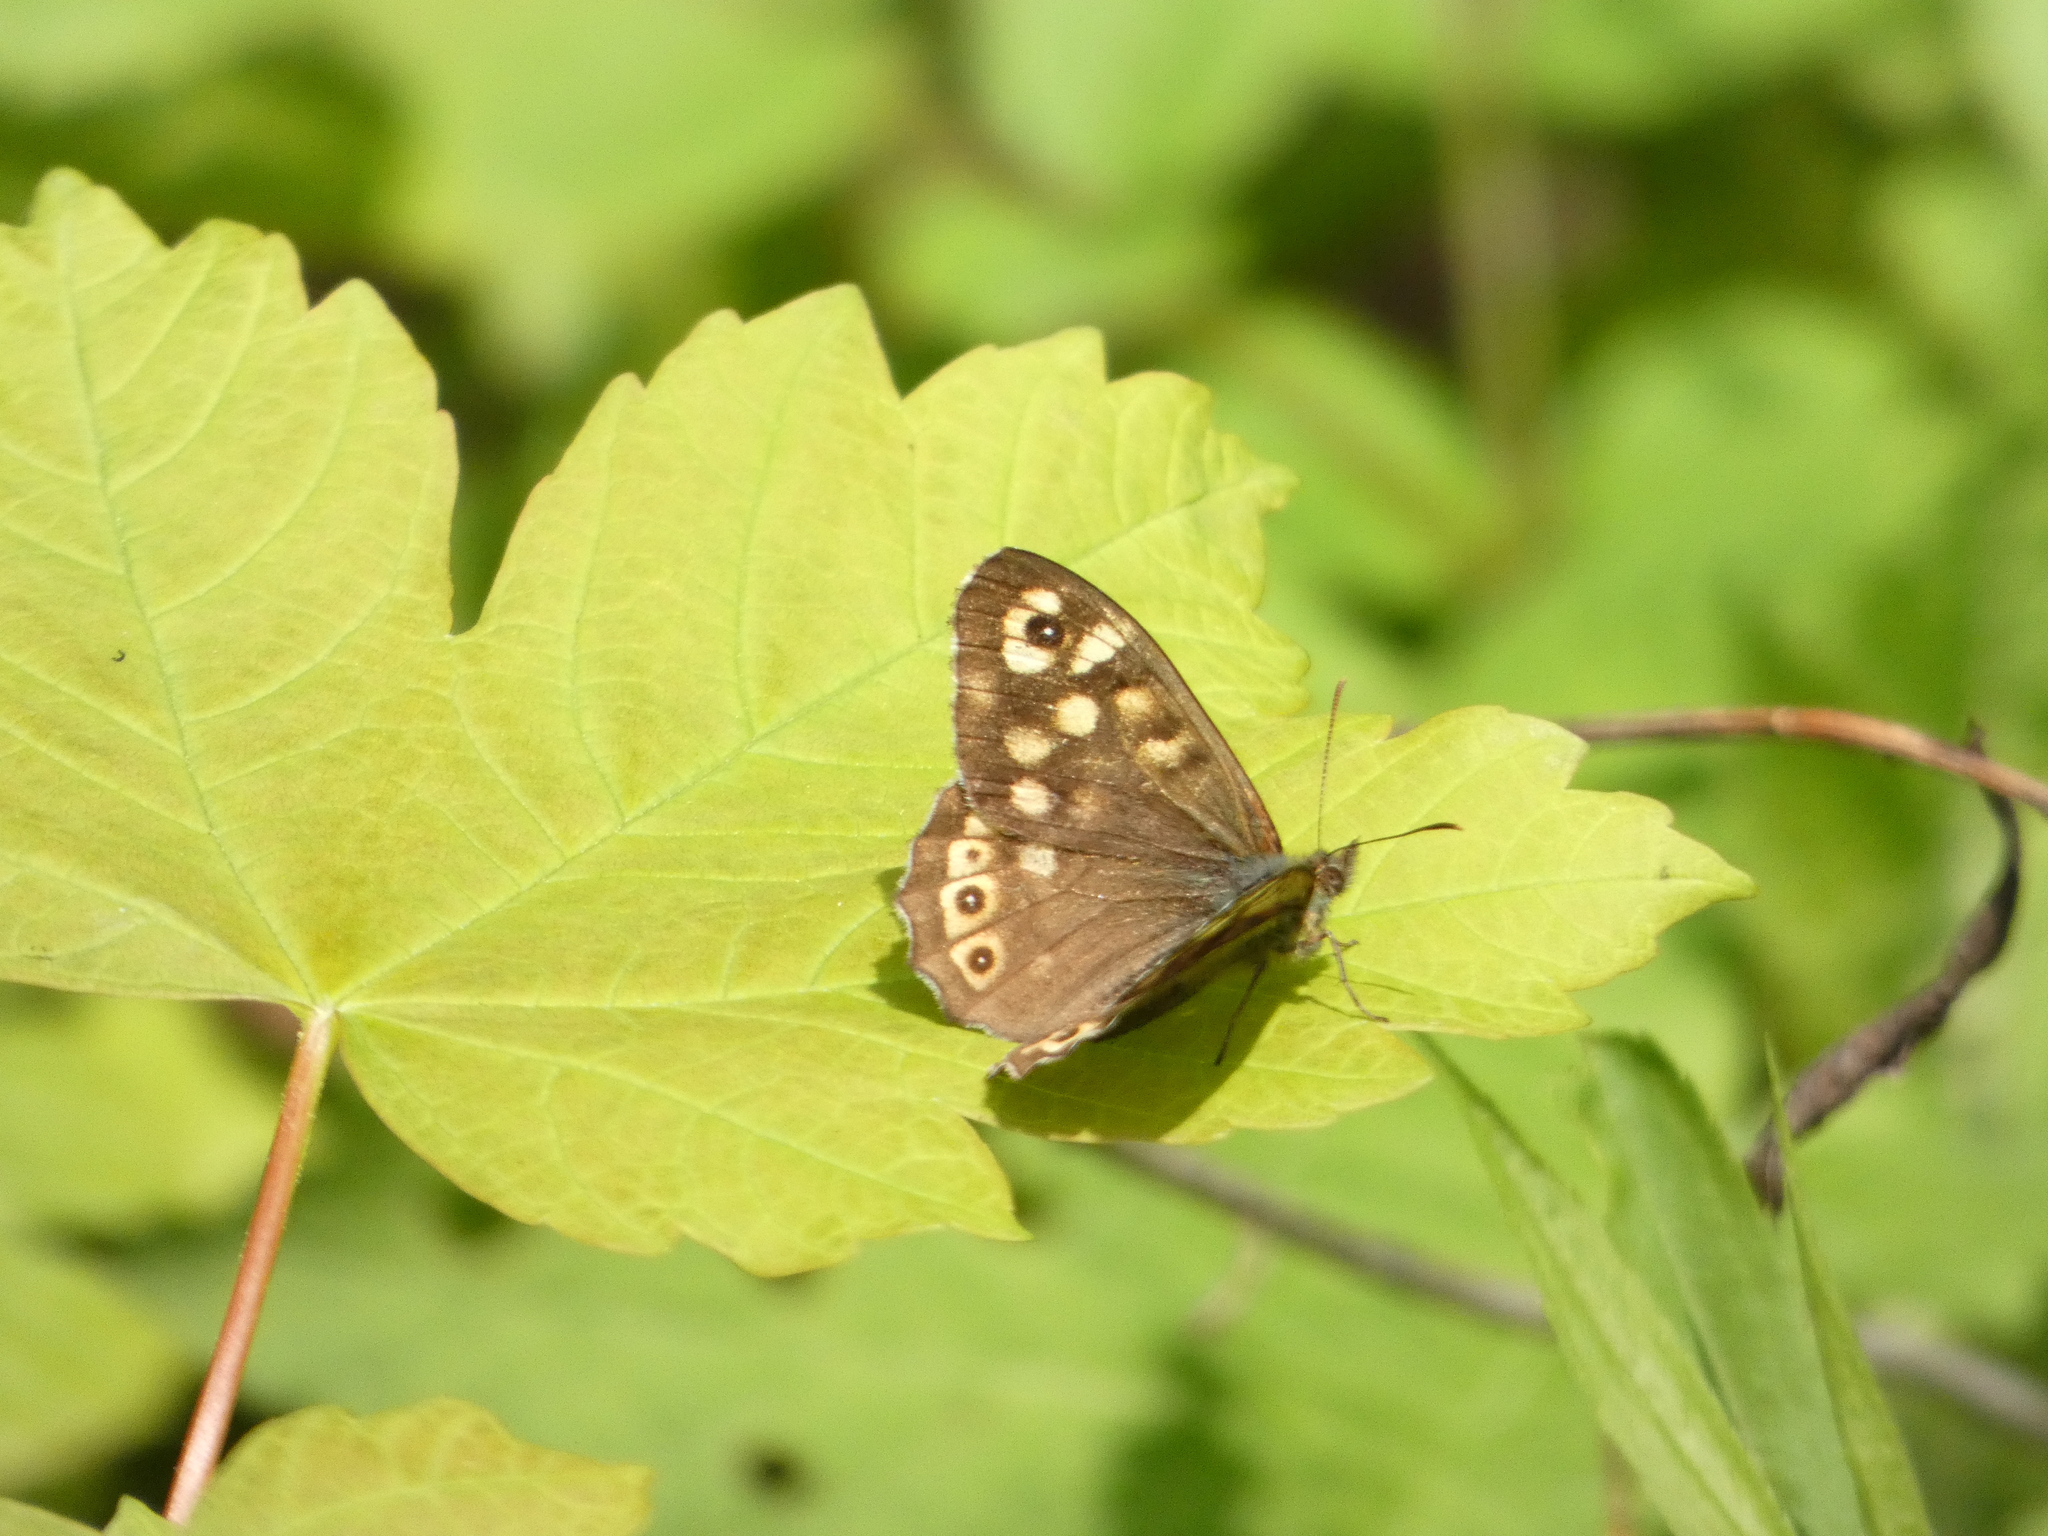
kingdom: Animalia
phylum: Arthropoda
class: Insecta
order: Lepidoptera
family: Nymphalidae
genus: Pararge
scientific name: Pararge aegeria
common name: Speckled wood
